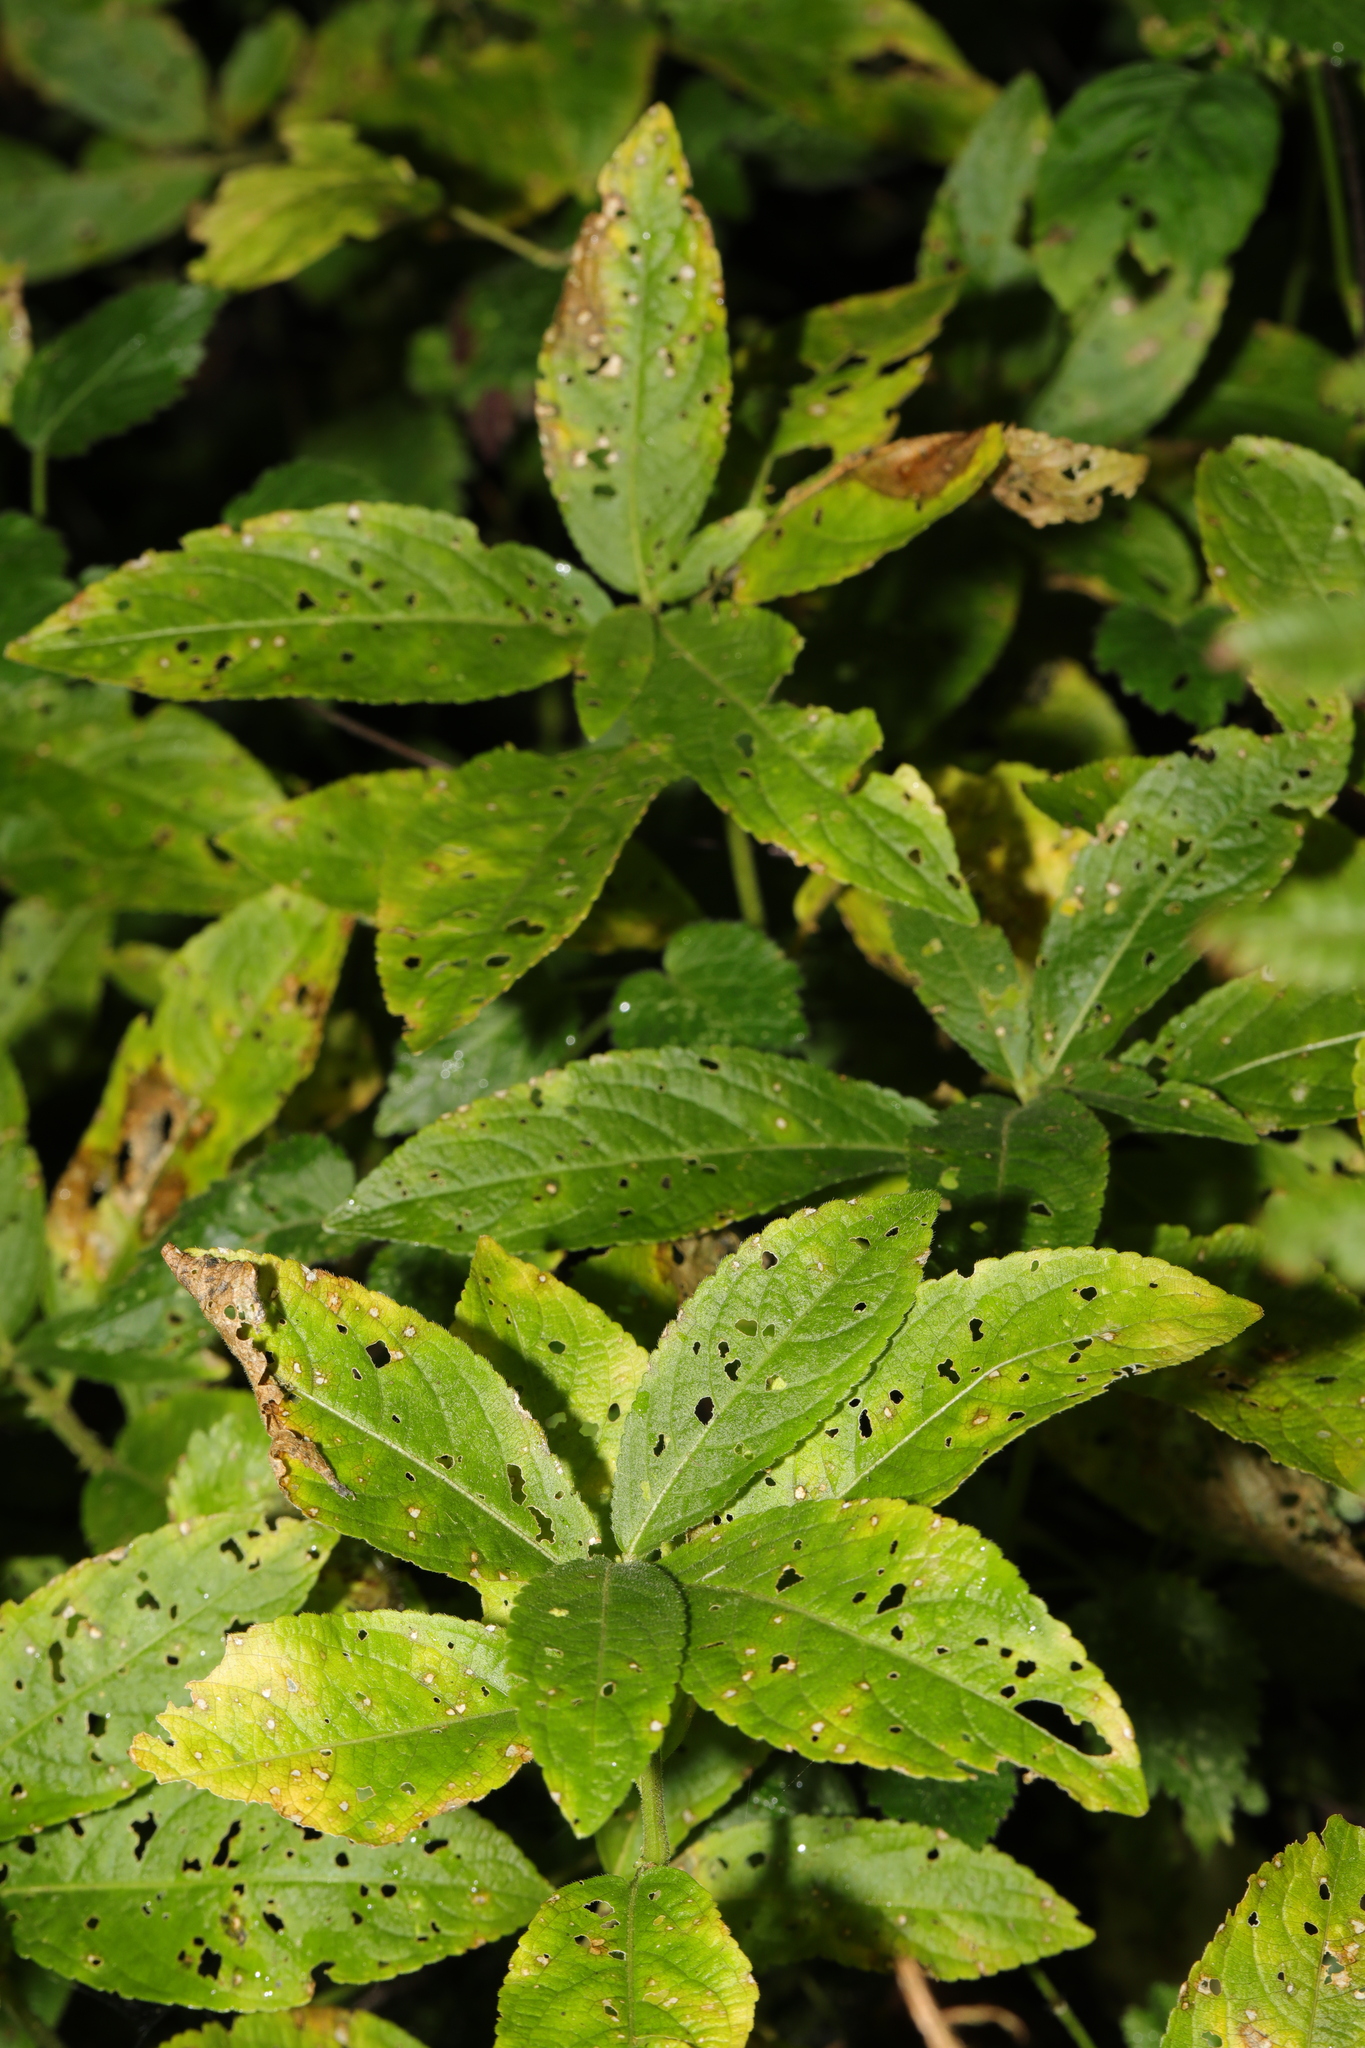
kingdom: Plantae
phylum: Tracheophyta
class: Magnoliopsida
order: Malpighiales
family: Euphorbiaceae
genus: Mercurialis
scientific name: Mercurialis perennis
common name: Dog mercury
